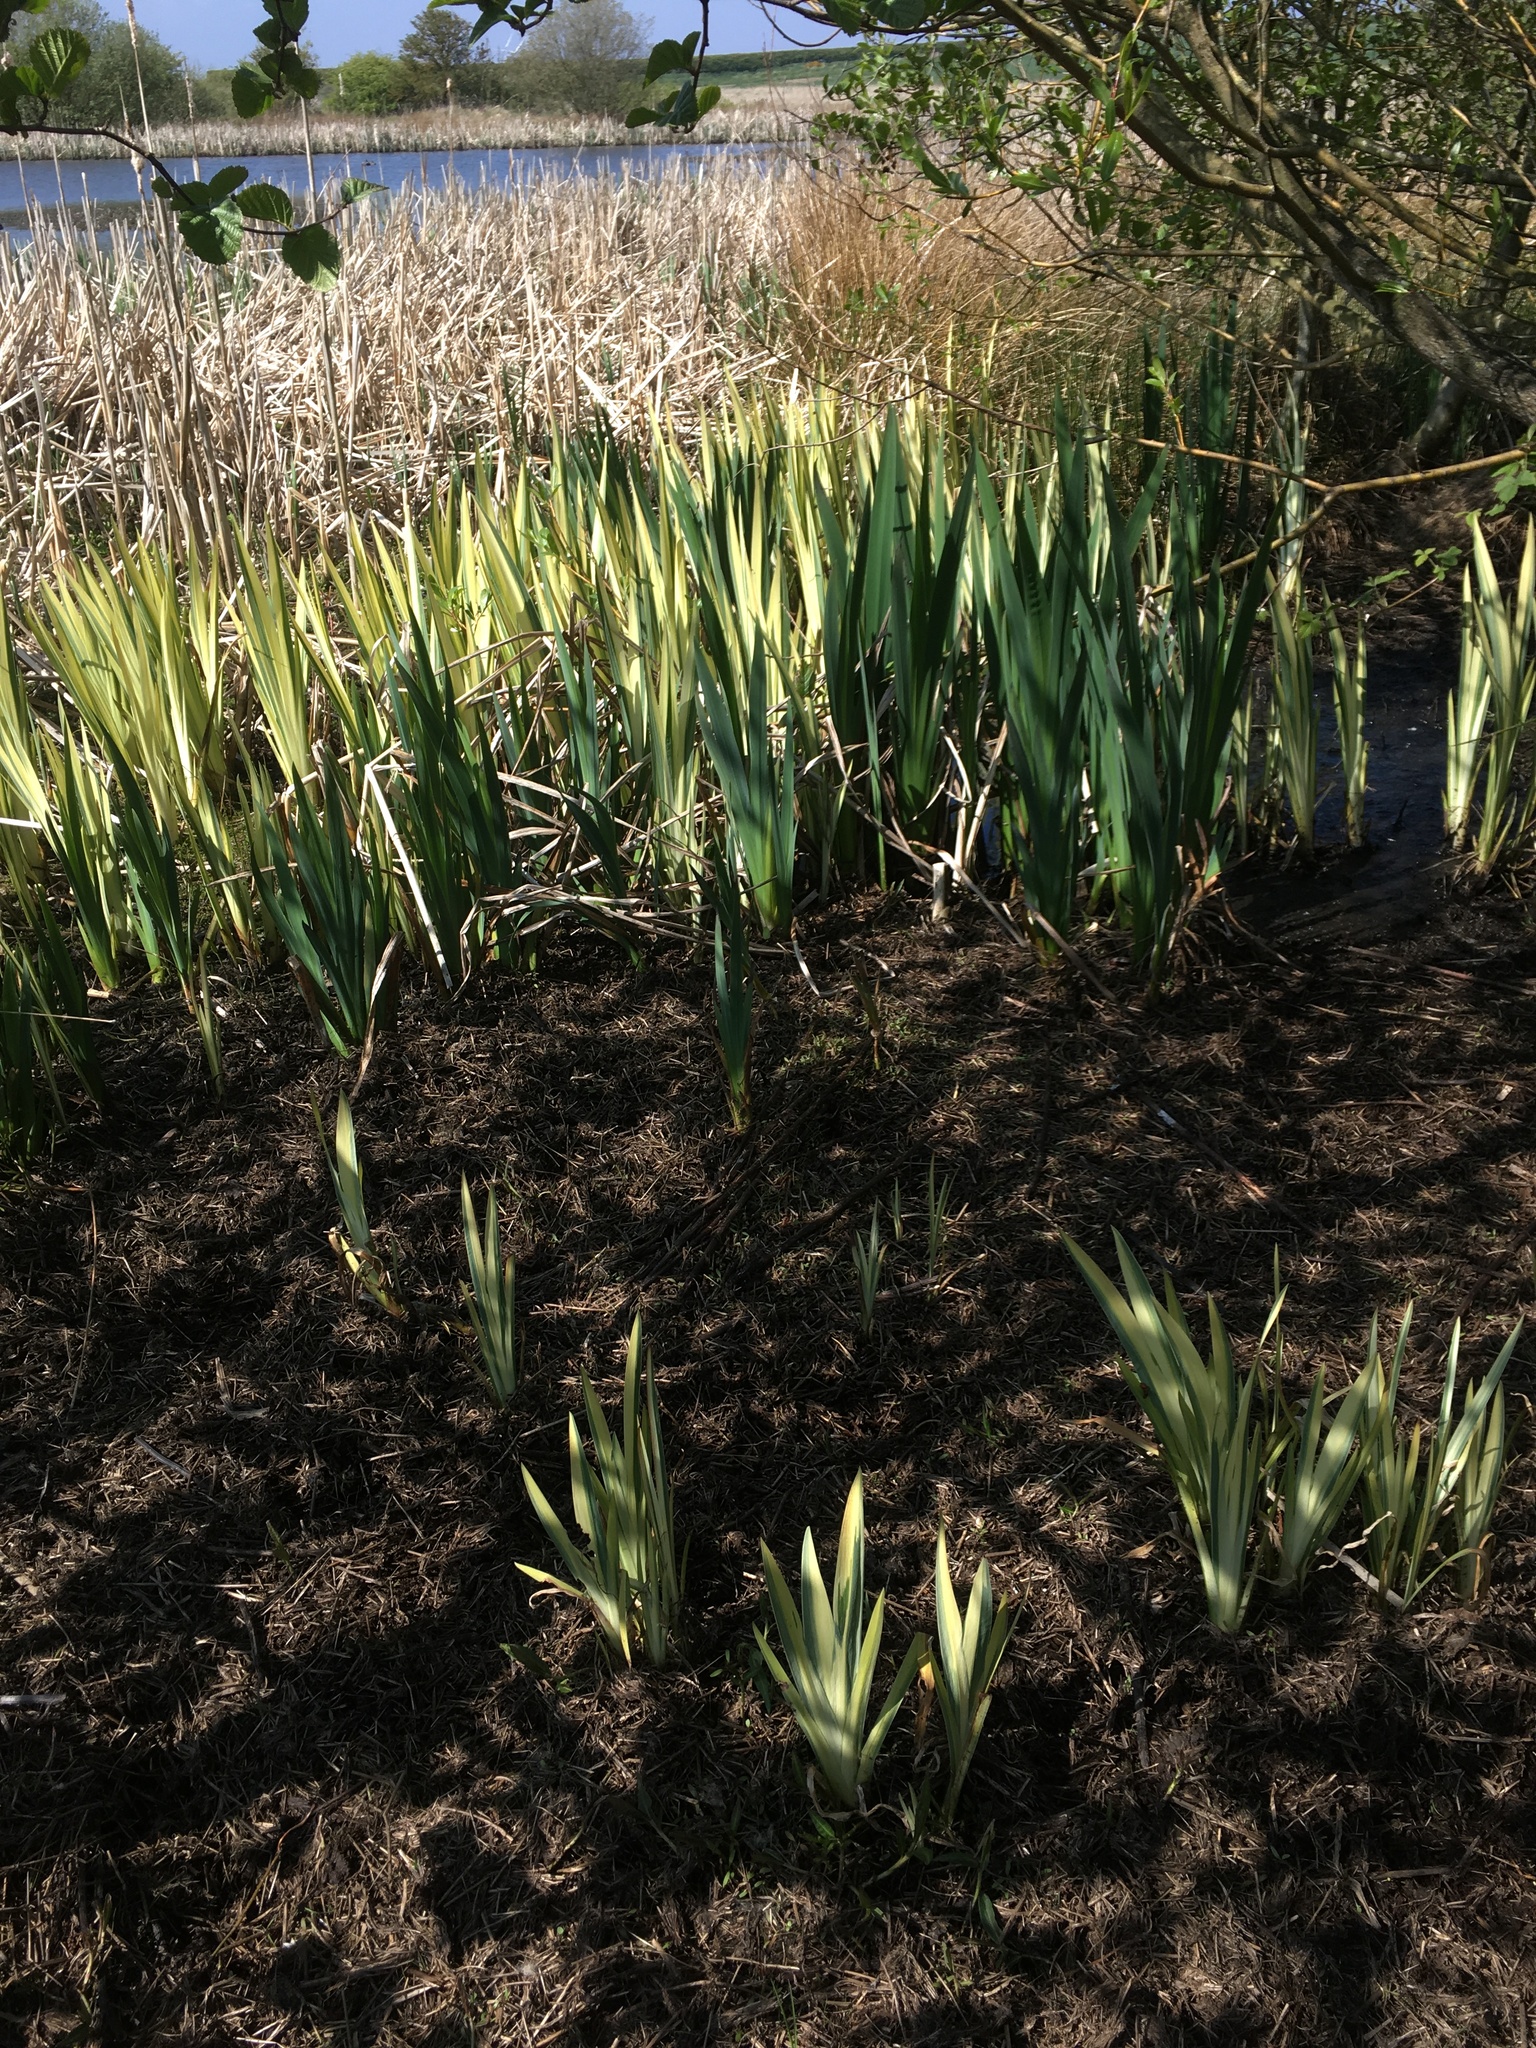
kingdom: Plantae
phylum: Tracheophyta
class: Liliopsida
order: Asparagales
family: Iridaceae
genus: Iris
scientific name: Iris pseudacorus
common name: Yellow flag
